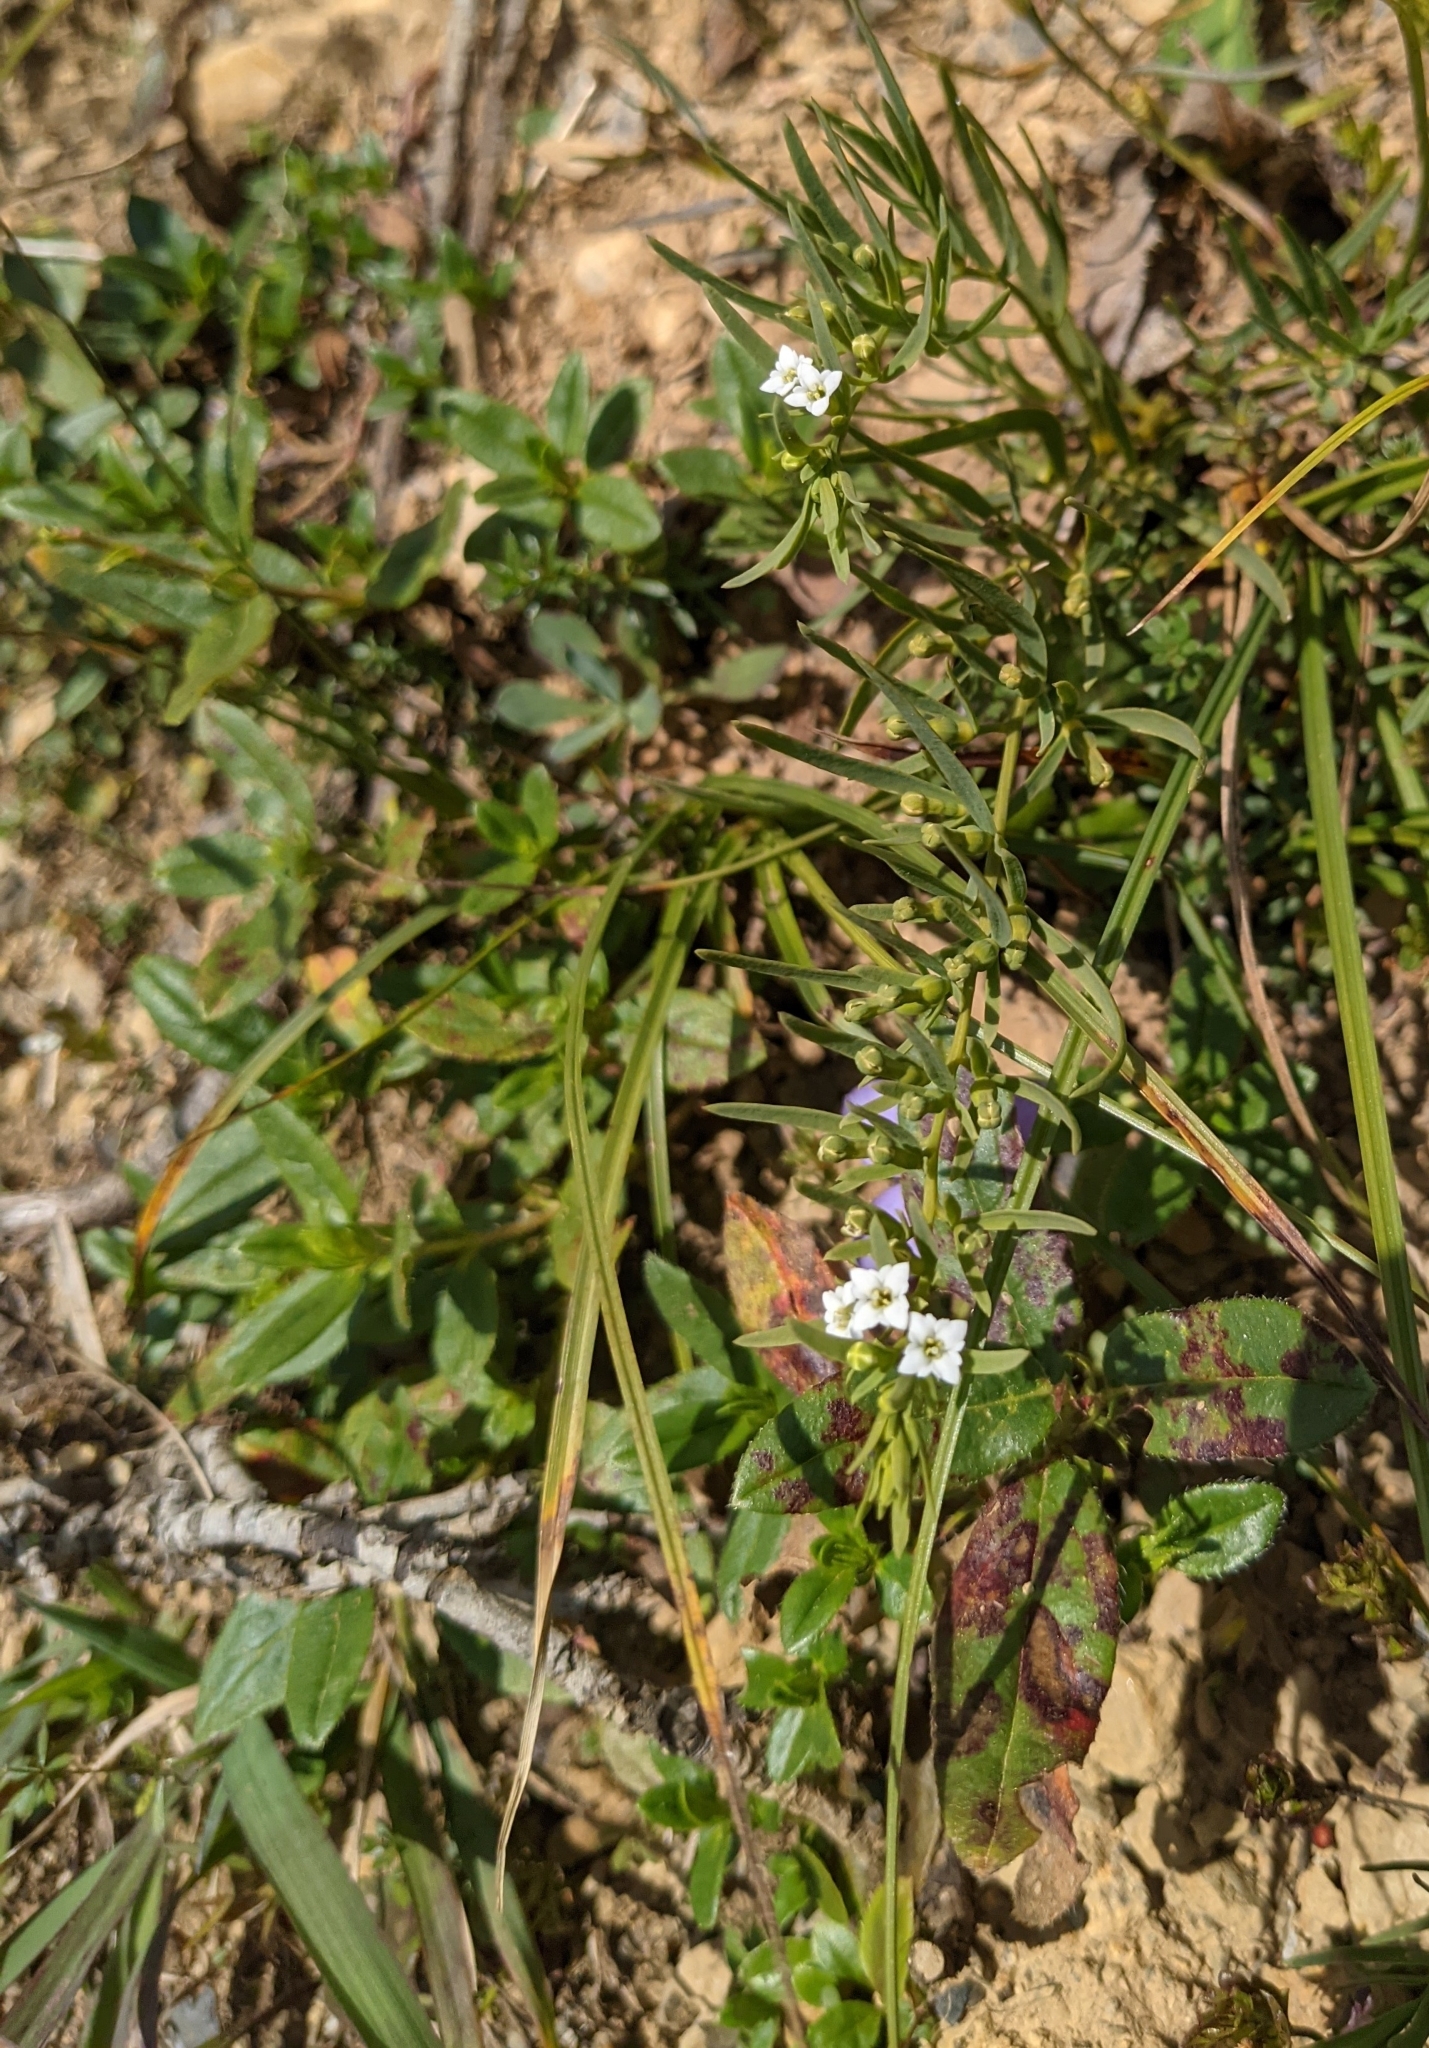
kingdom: Plantae
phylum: Tracheophyta
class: Magnoliopsida
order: Santalales
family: Thesiaceae
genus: Thesium
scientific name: Thesium alpinum
